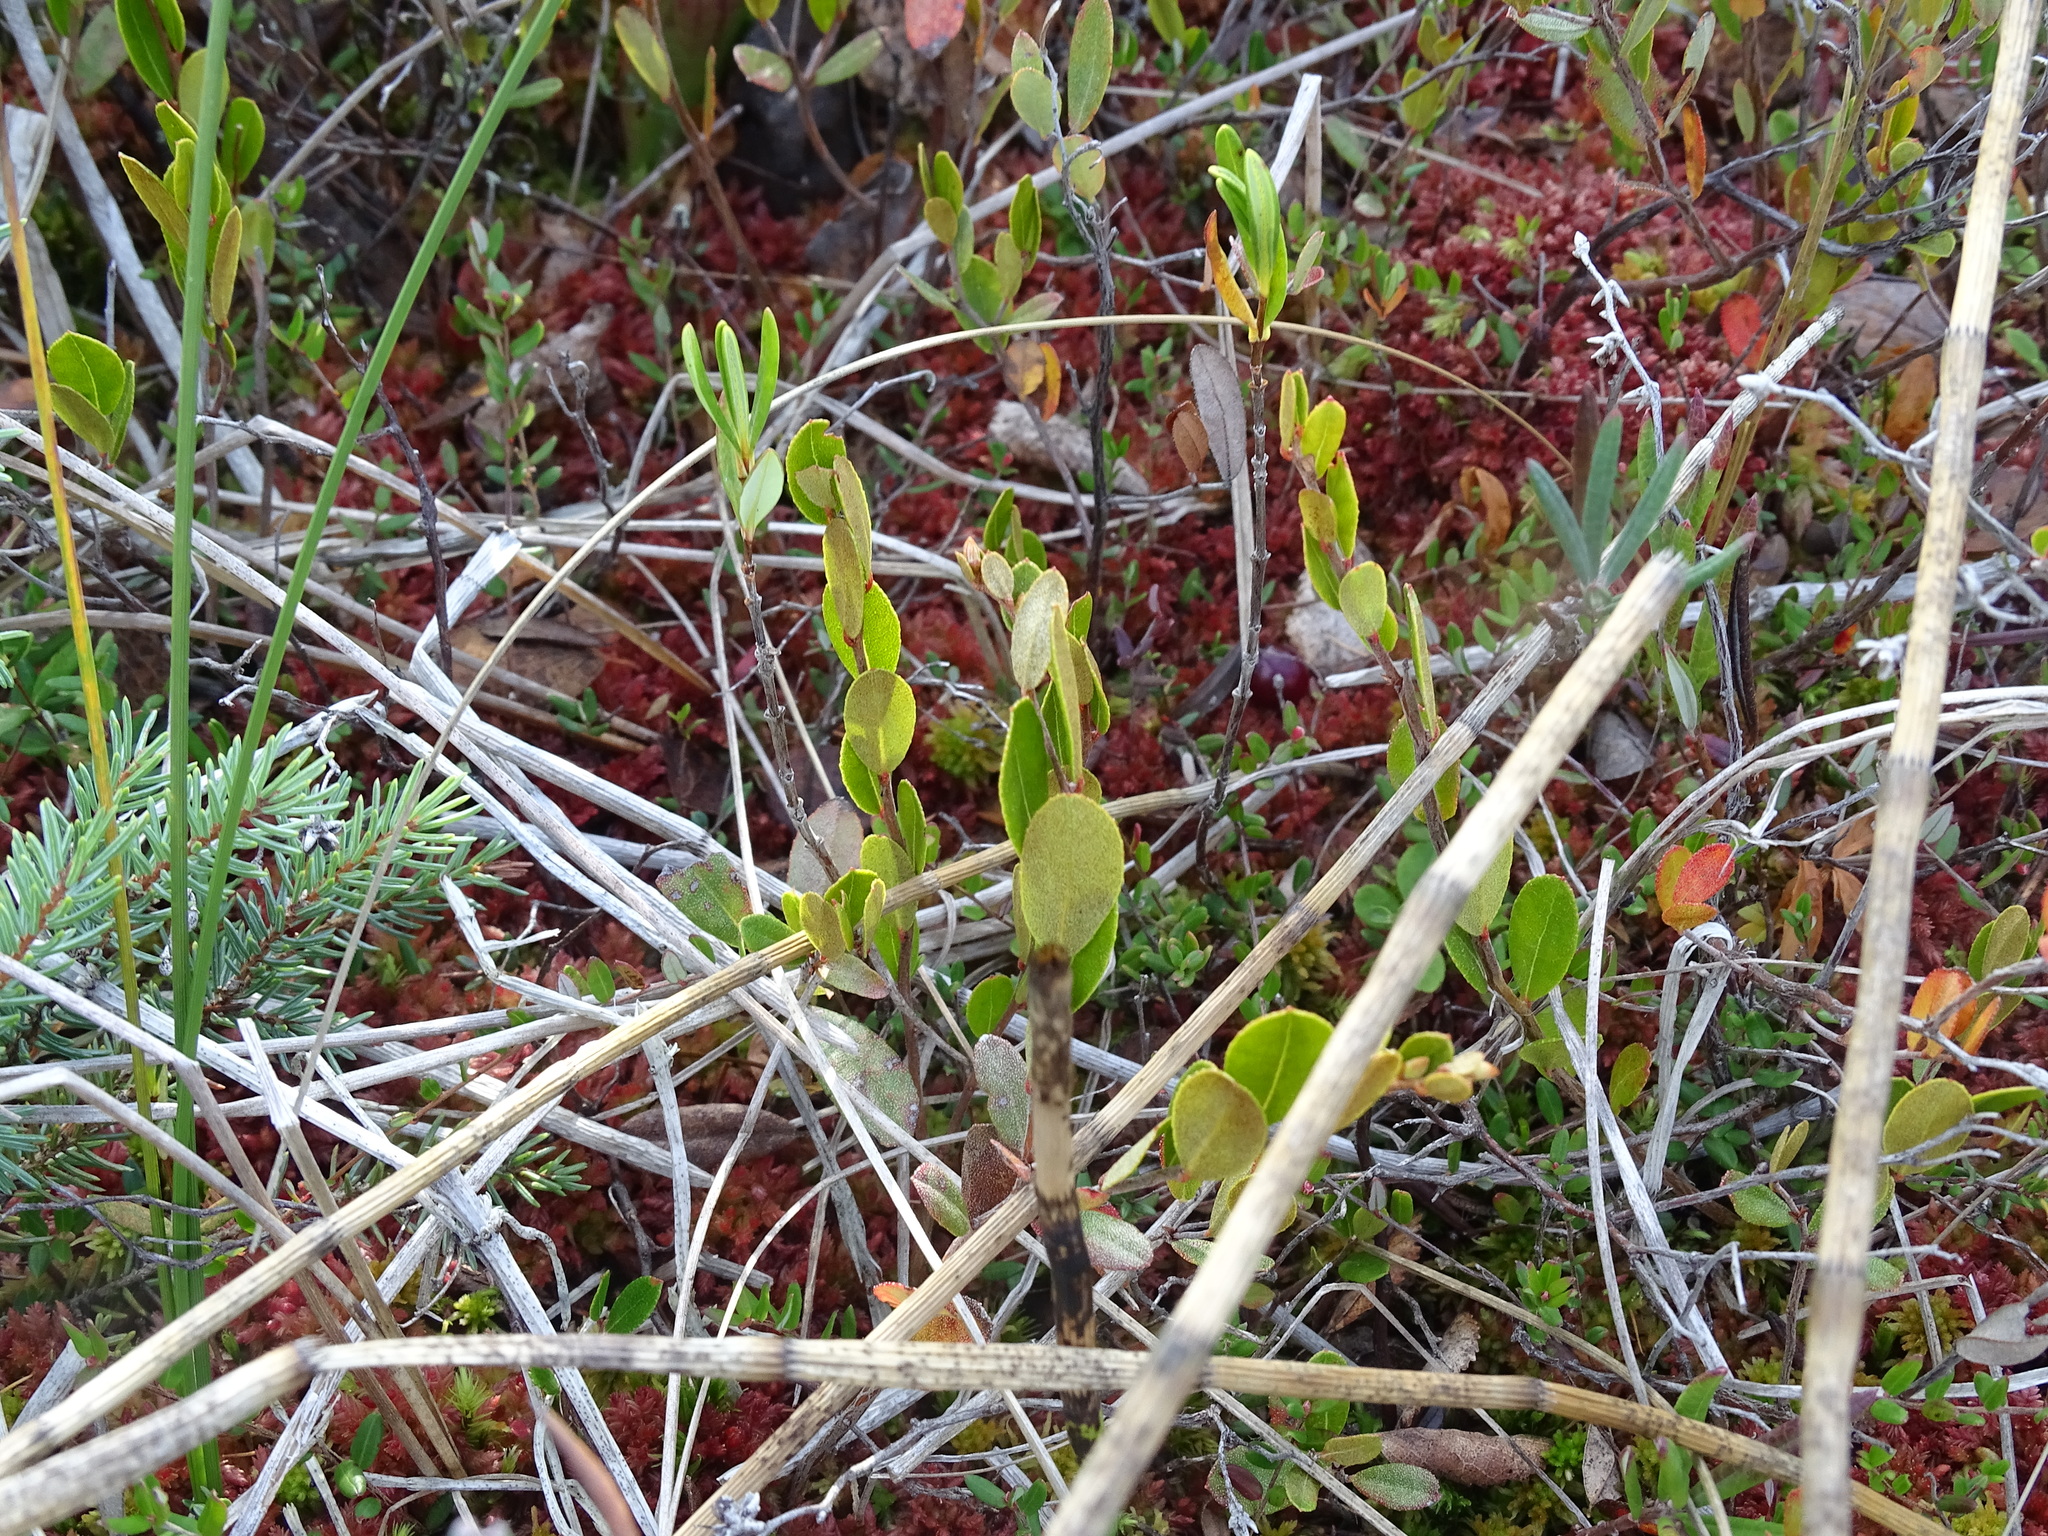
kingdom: Plantae
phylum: Tracheophyta
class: Magnoliopsida
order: Ericales
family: Ericaceae
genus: Chamaedaphne
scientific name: Chamaedaphne calyculata
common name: Leatherleaf
